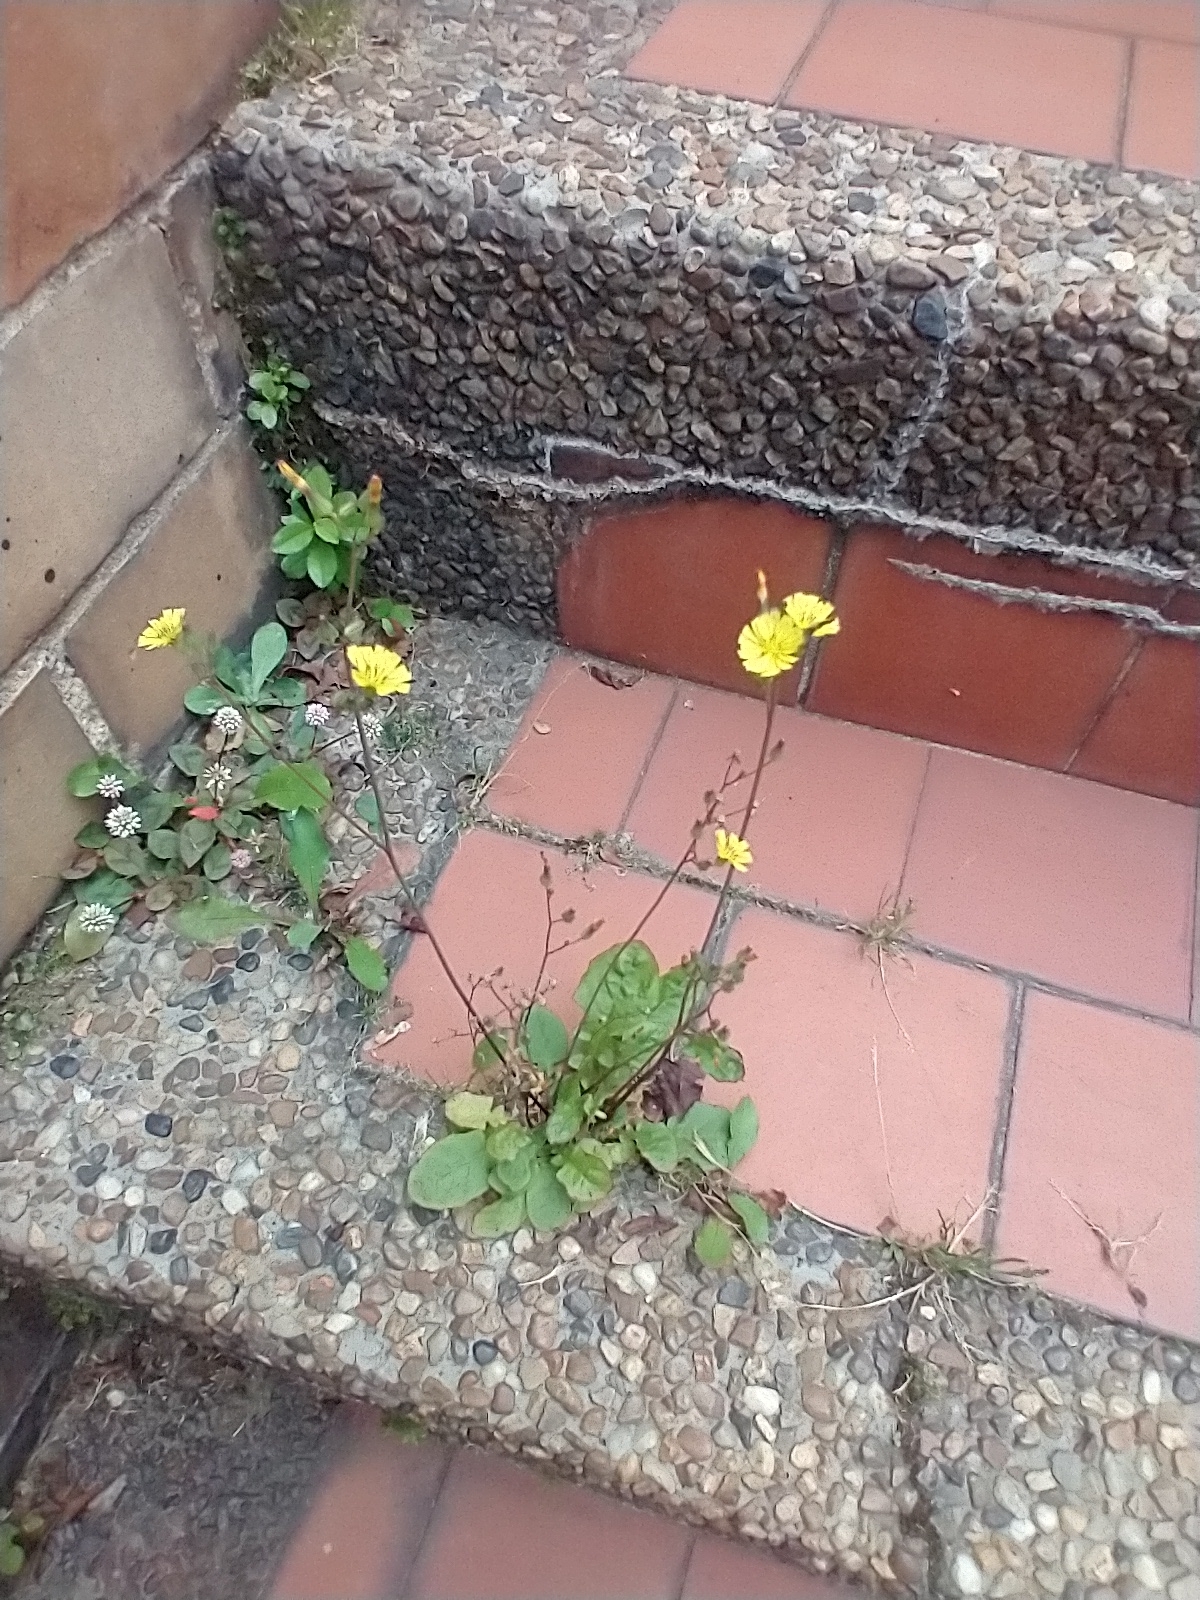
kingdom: Plantae
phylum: Tracheophyta
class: Magnoliopsida
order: Asterales
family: Asteraceae
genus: Youngia
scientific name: Youngia japonica
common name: Oriental false hawksbeard
